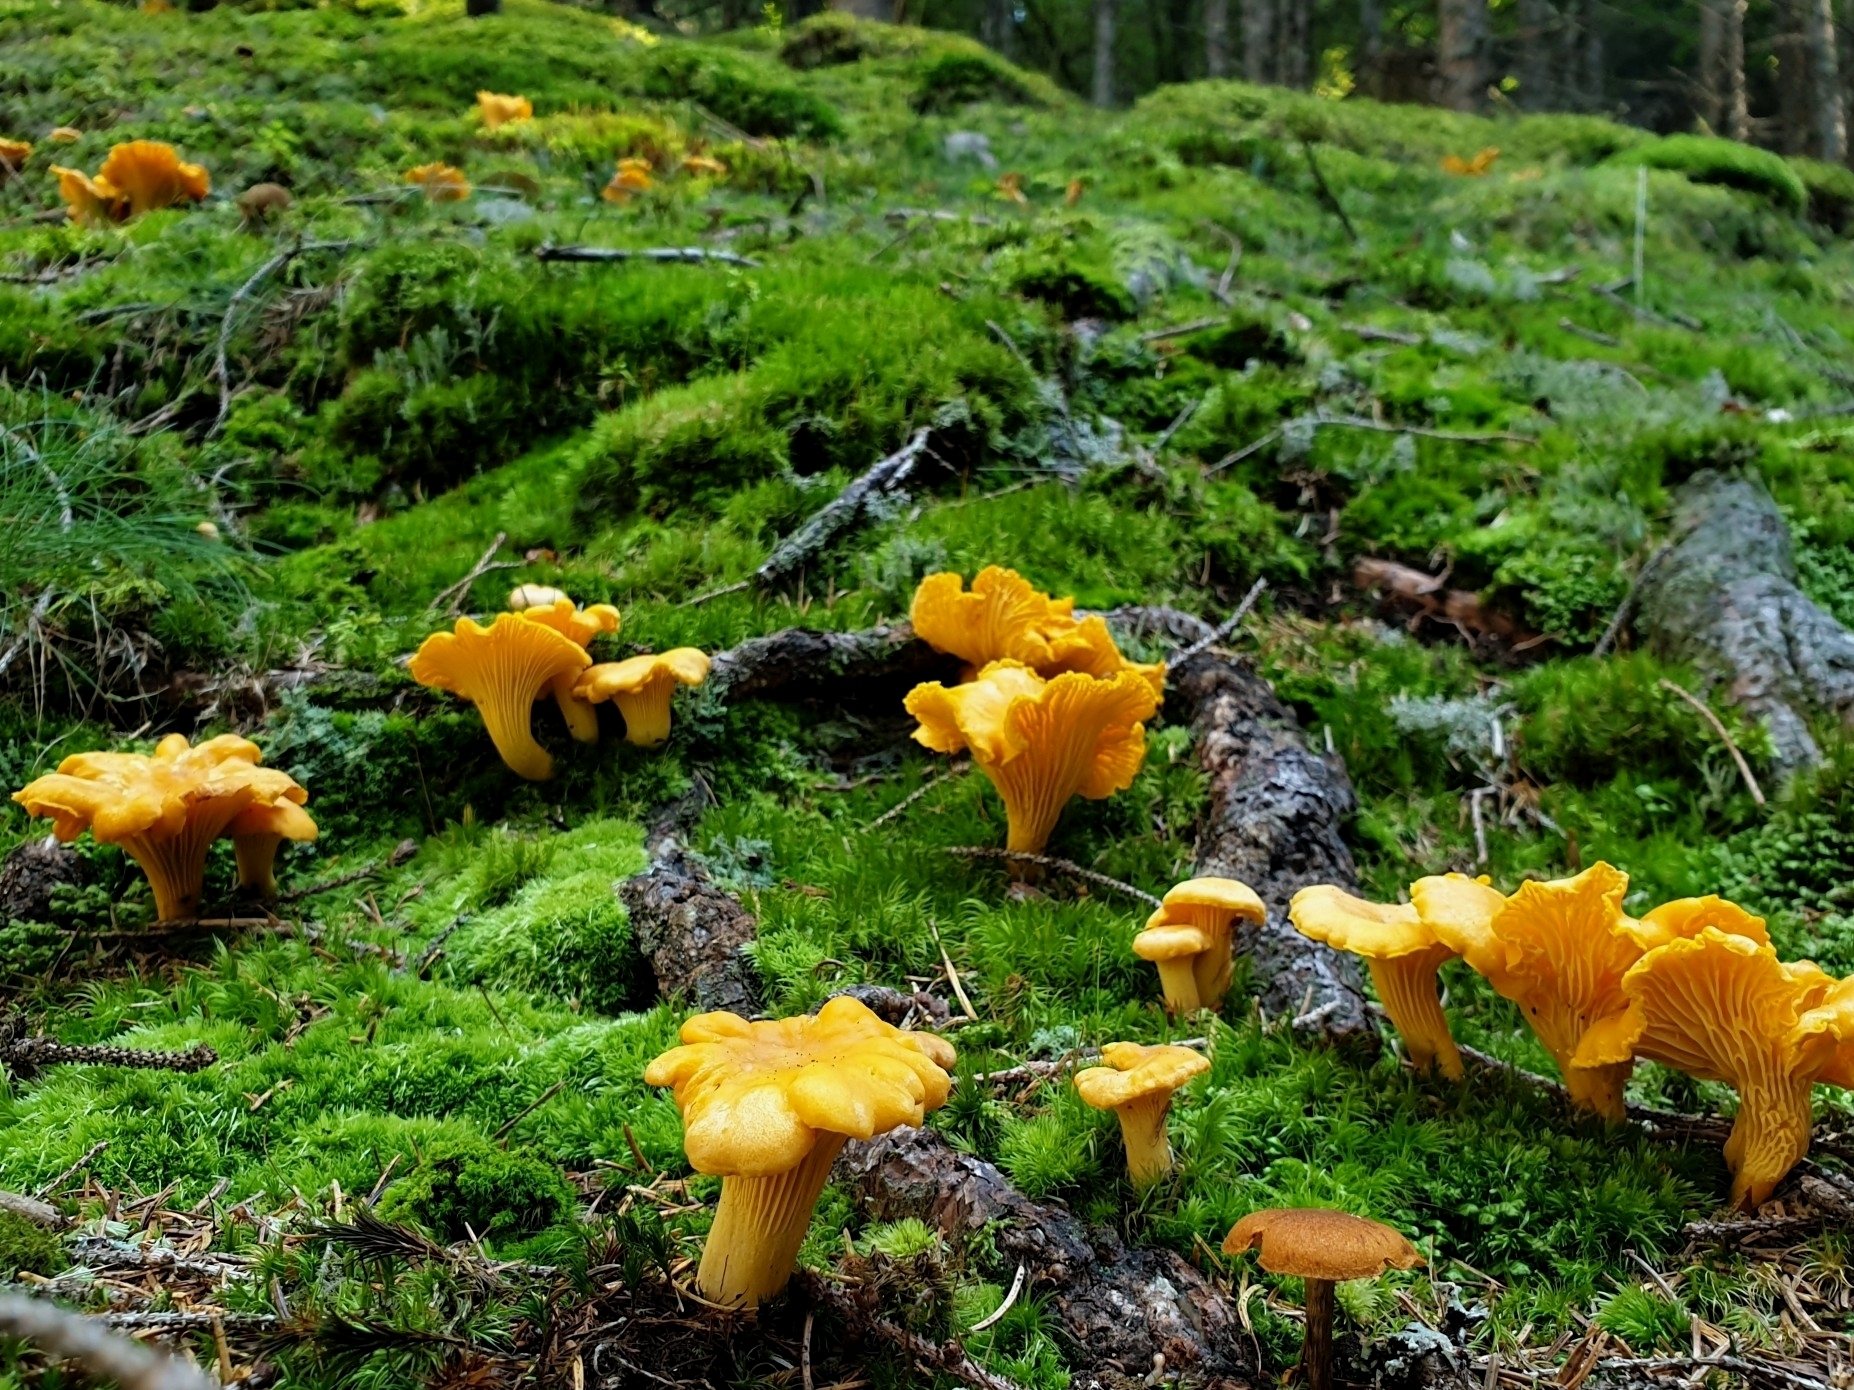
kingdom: Fungi
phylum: Basidiomycota
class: Agaricomycetes
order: Cantharellales
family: Hydnaceae
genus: Cantharellus
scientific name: Cantharellus cibarius
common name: Chanterelle
